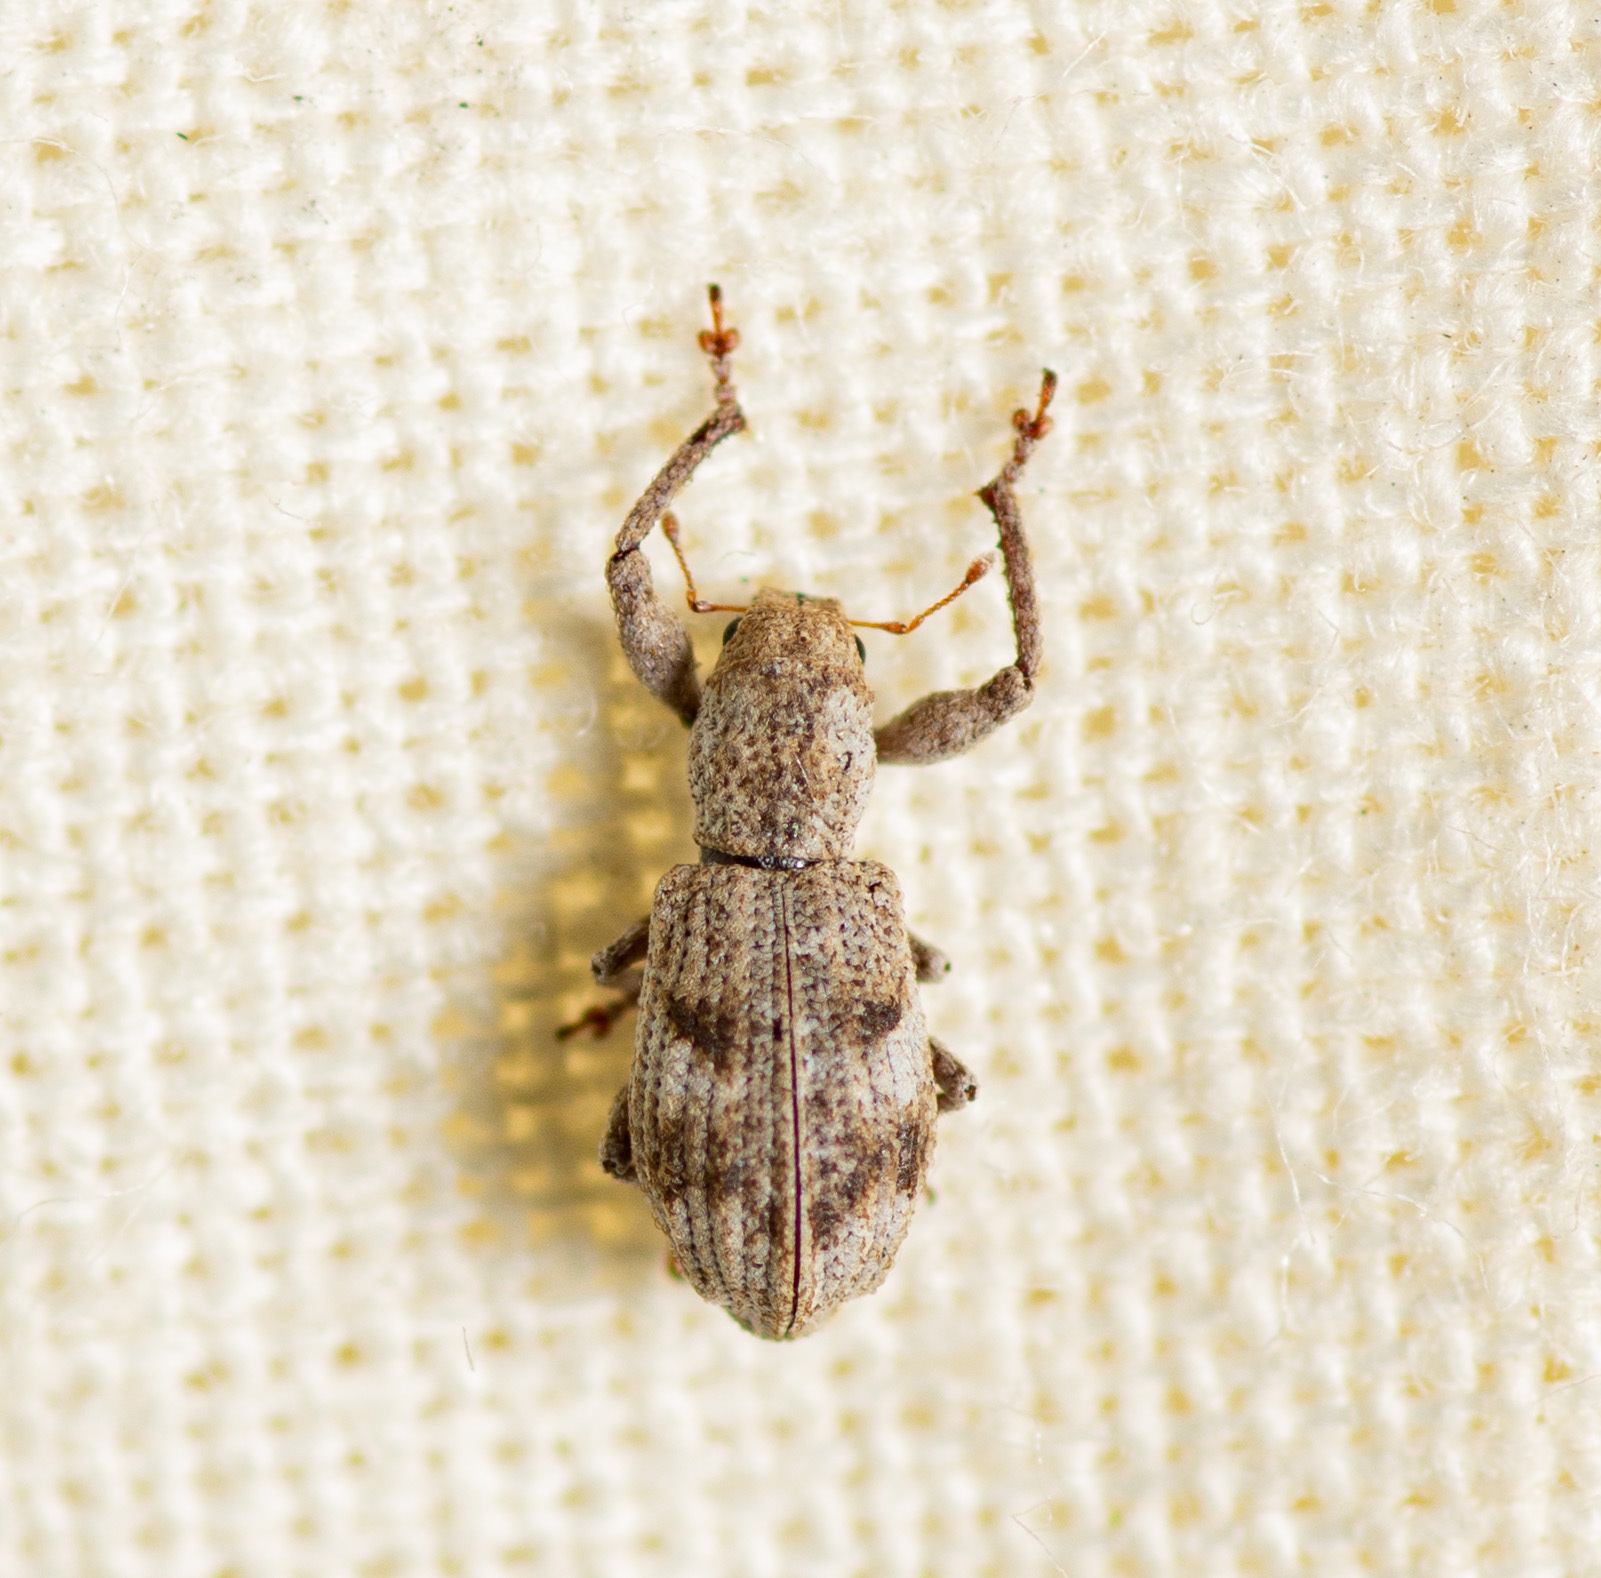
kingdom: Animalia
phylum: Arthropoda
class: Insecta
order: Coleoptera
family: Curculionidae
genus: Pandeleteius
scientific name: Pandeleteius cinereus
